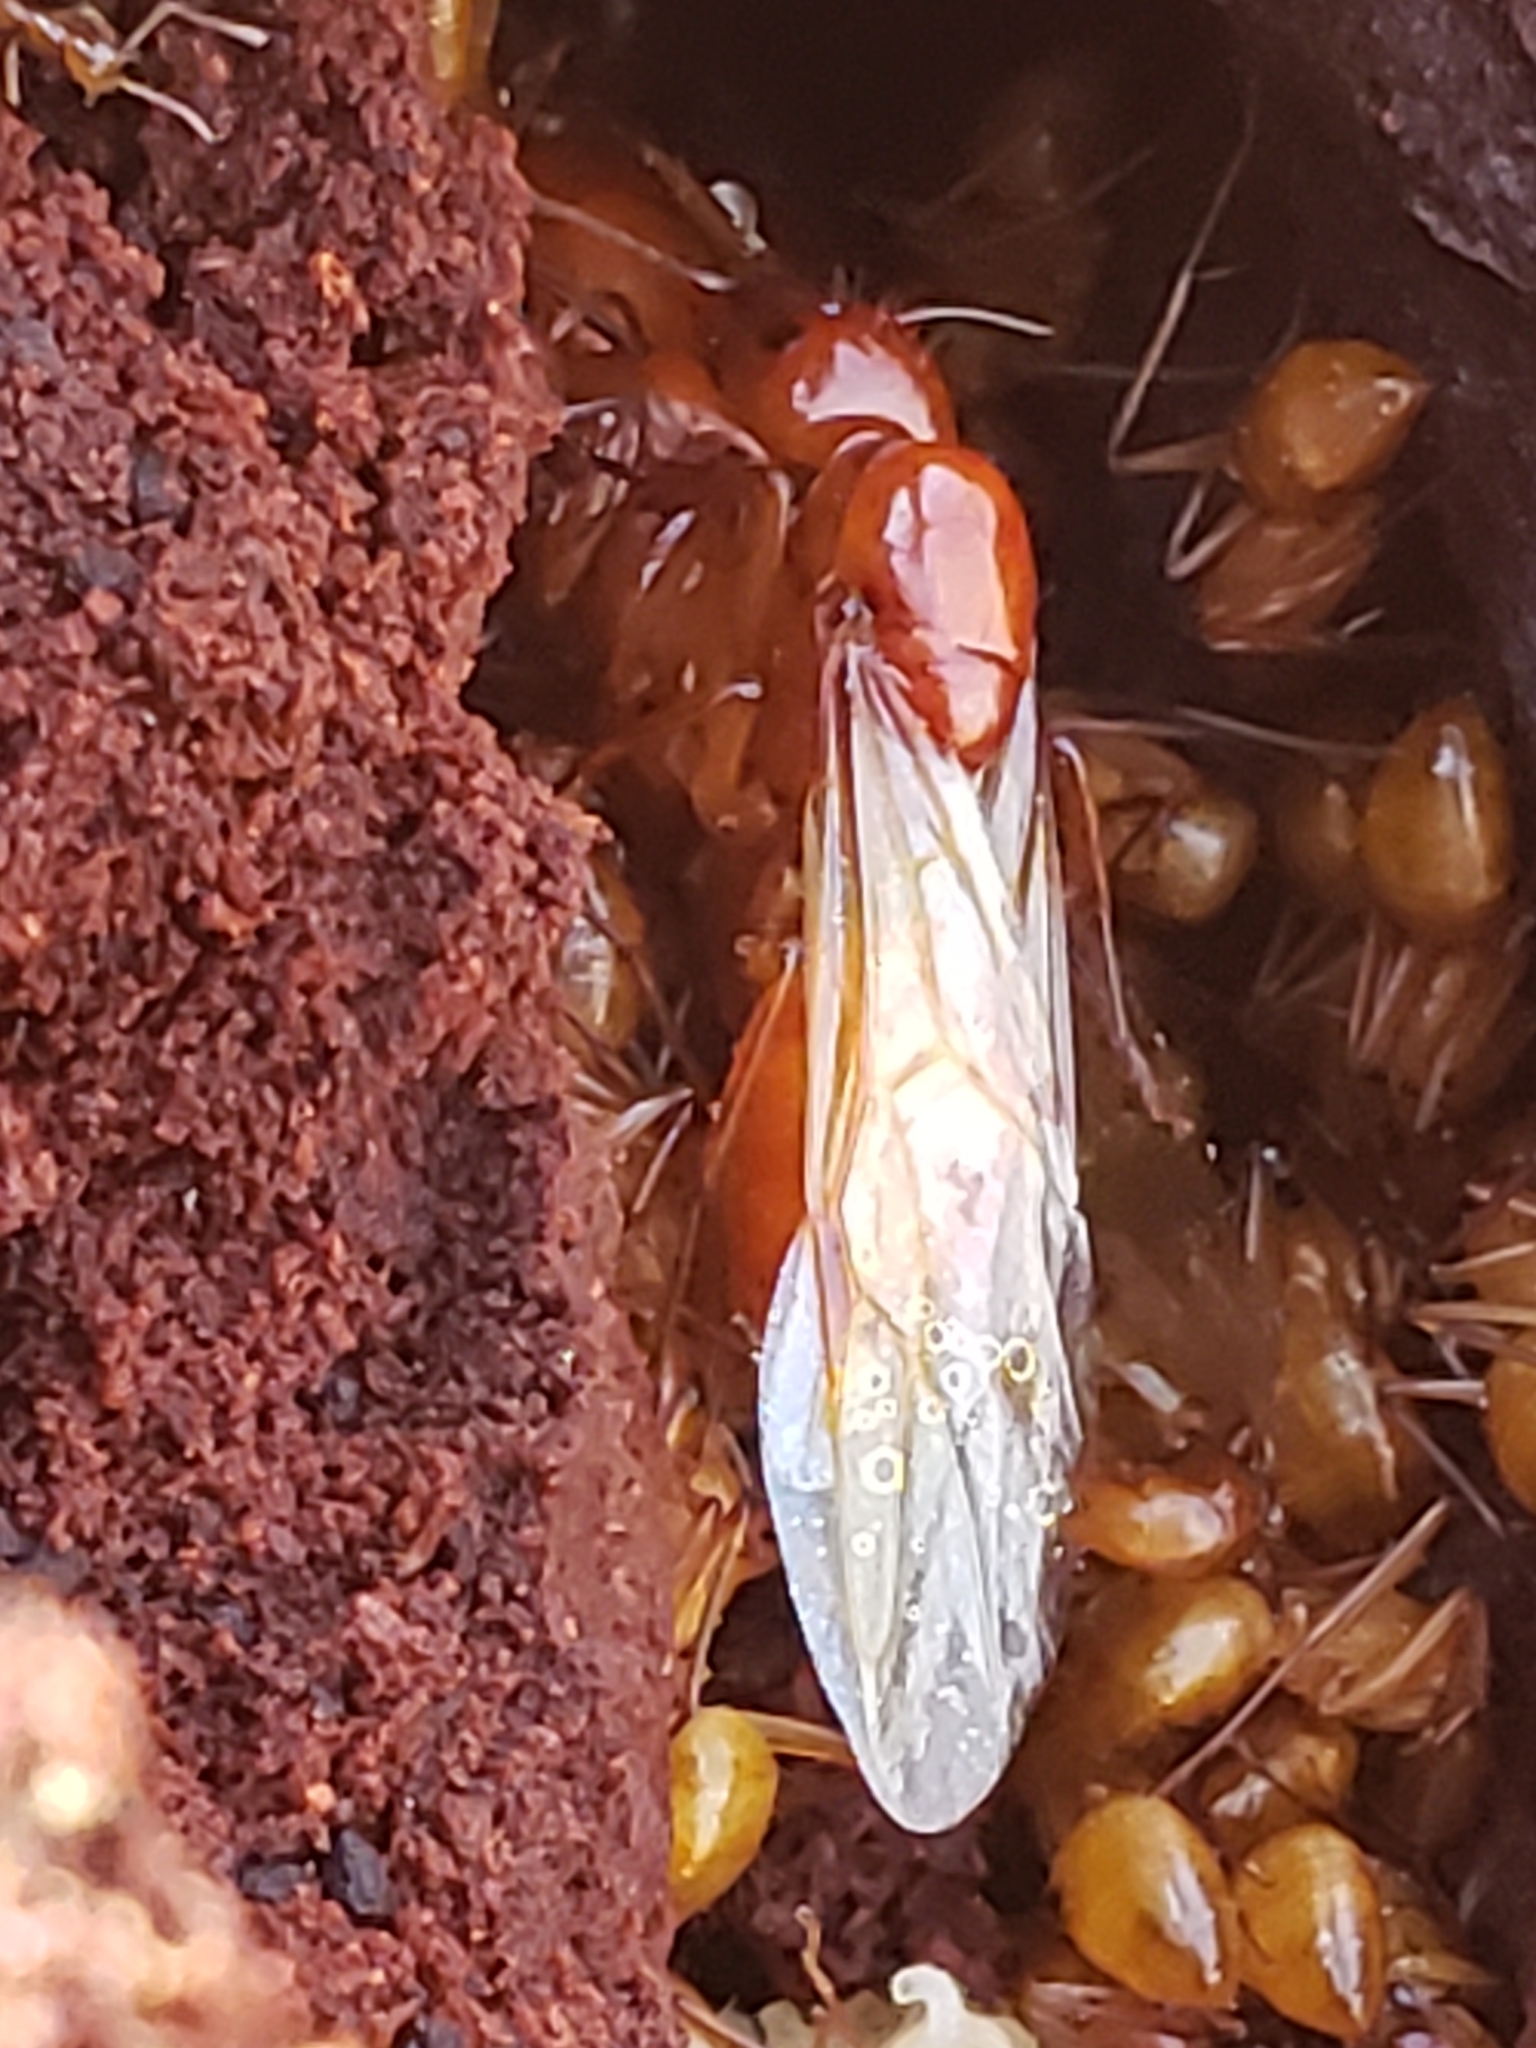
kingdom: Animalia
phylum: Arthropoda
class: Insecta
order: Hymenoptera
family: Formicidae
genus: Camponotus
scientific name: Camponotus castaneus
